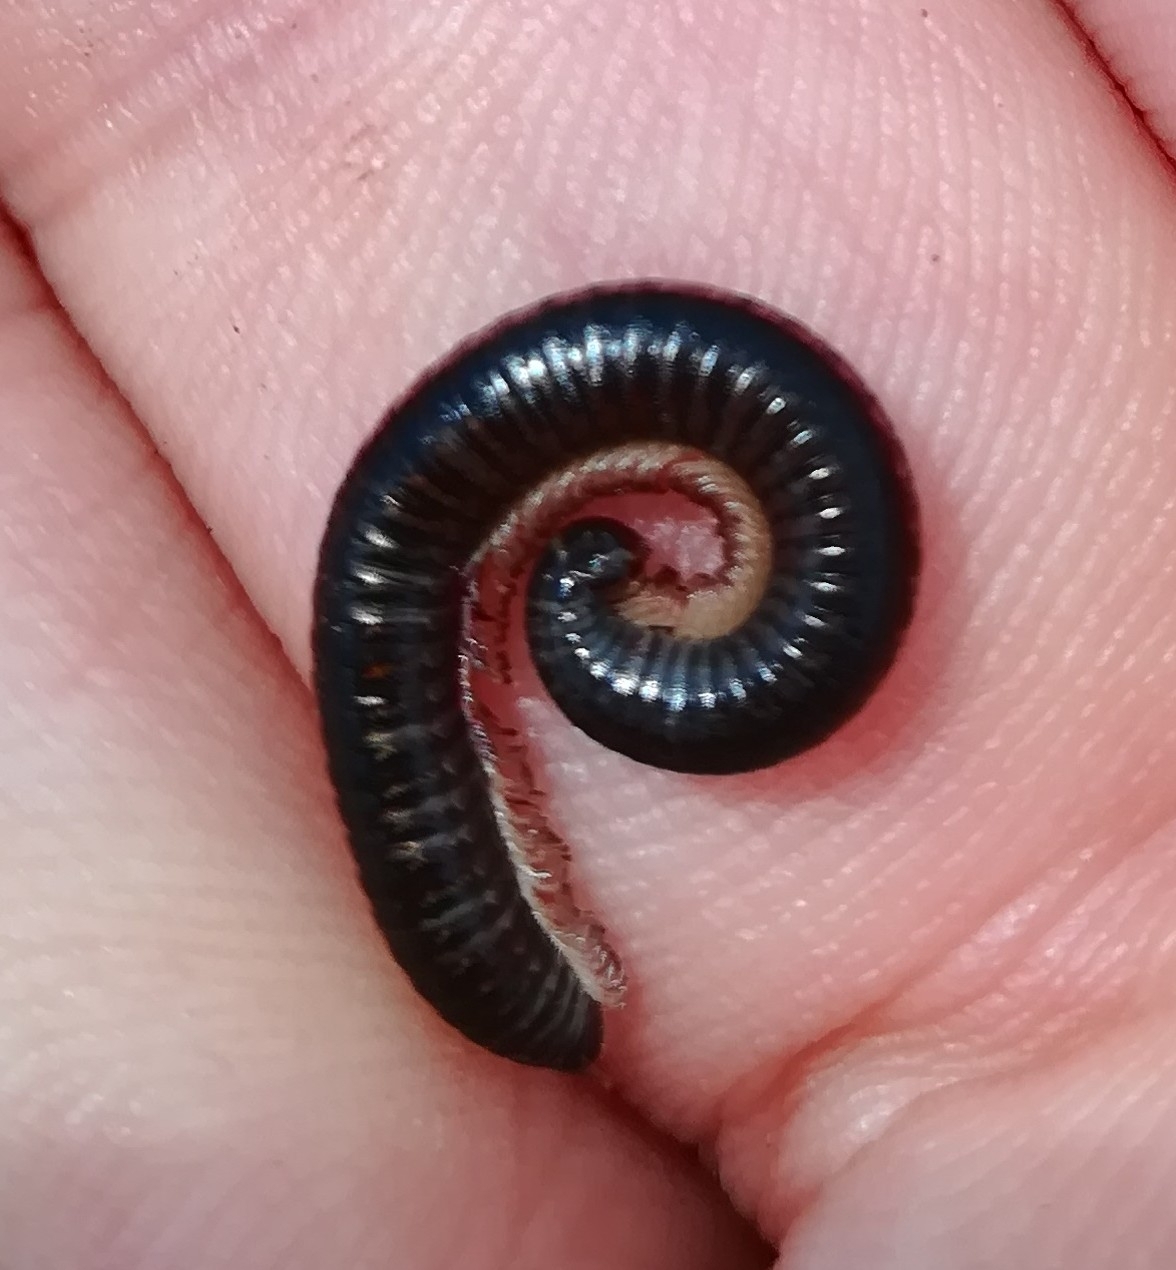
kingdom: Animalia
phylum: Arthropoda
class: Diplopoda
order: Julida
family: Julidae
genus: Ommatoiulus
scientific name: Ommatoiulus sabulosus
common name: Striped millipede
